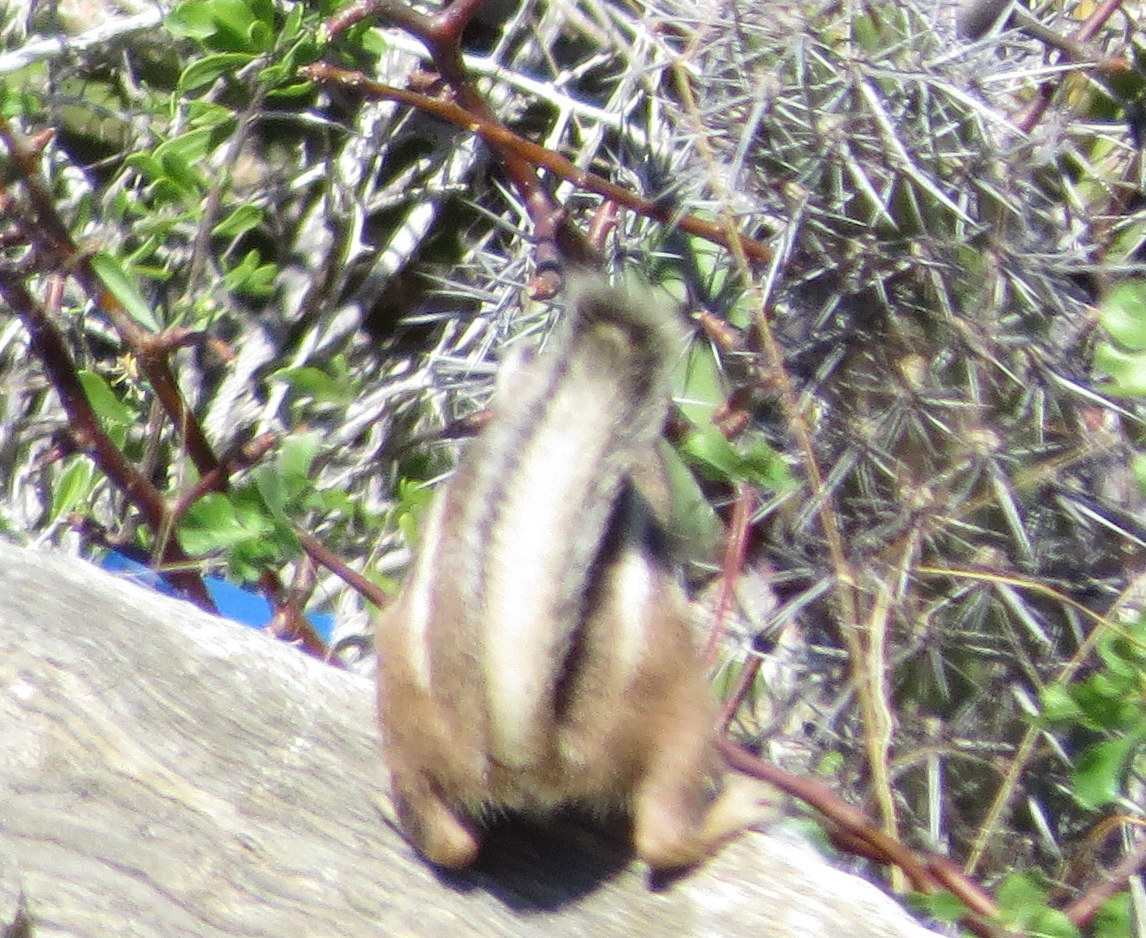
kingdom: Animalia
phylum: Chordata
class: Mammalia
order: Rodentia
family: Sciuridae
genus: Ammospermophilus
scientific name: Ammospermophilus leucurus
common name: White-tailed antelope squirrel
